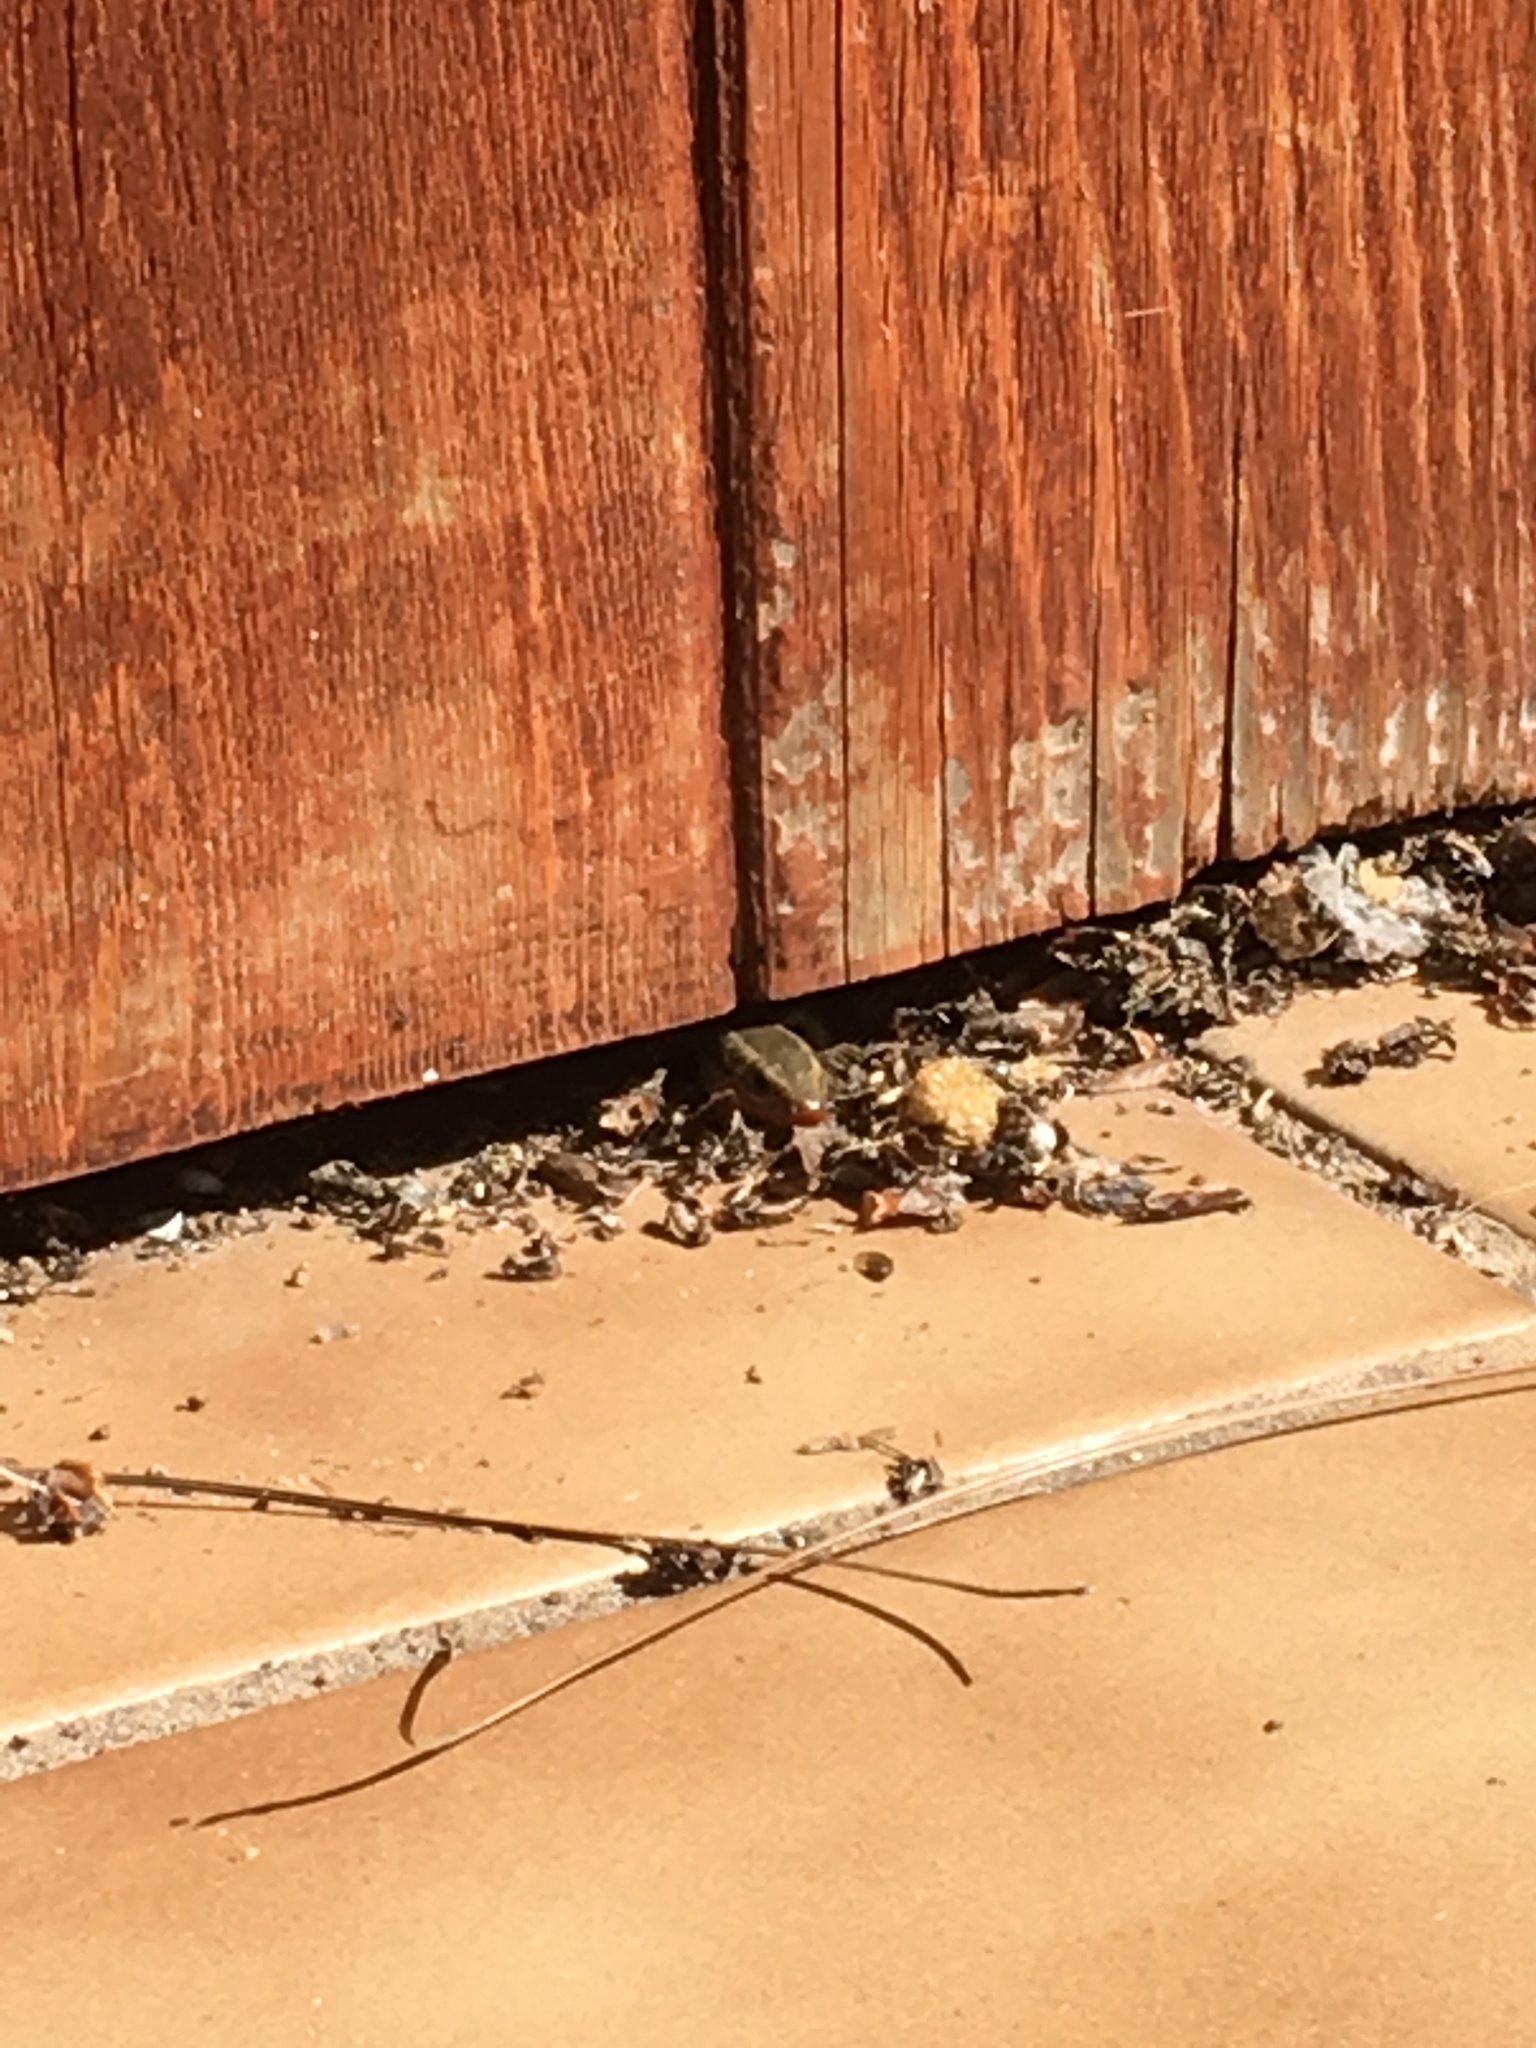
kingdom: Animalia
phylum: Chordata
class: Squamata
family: Scincidae
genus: Plestiodon
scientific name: Plestiodon skiltonianus
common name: Coronado island skink [interparietalis]
